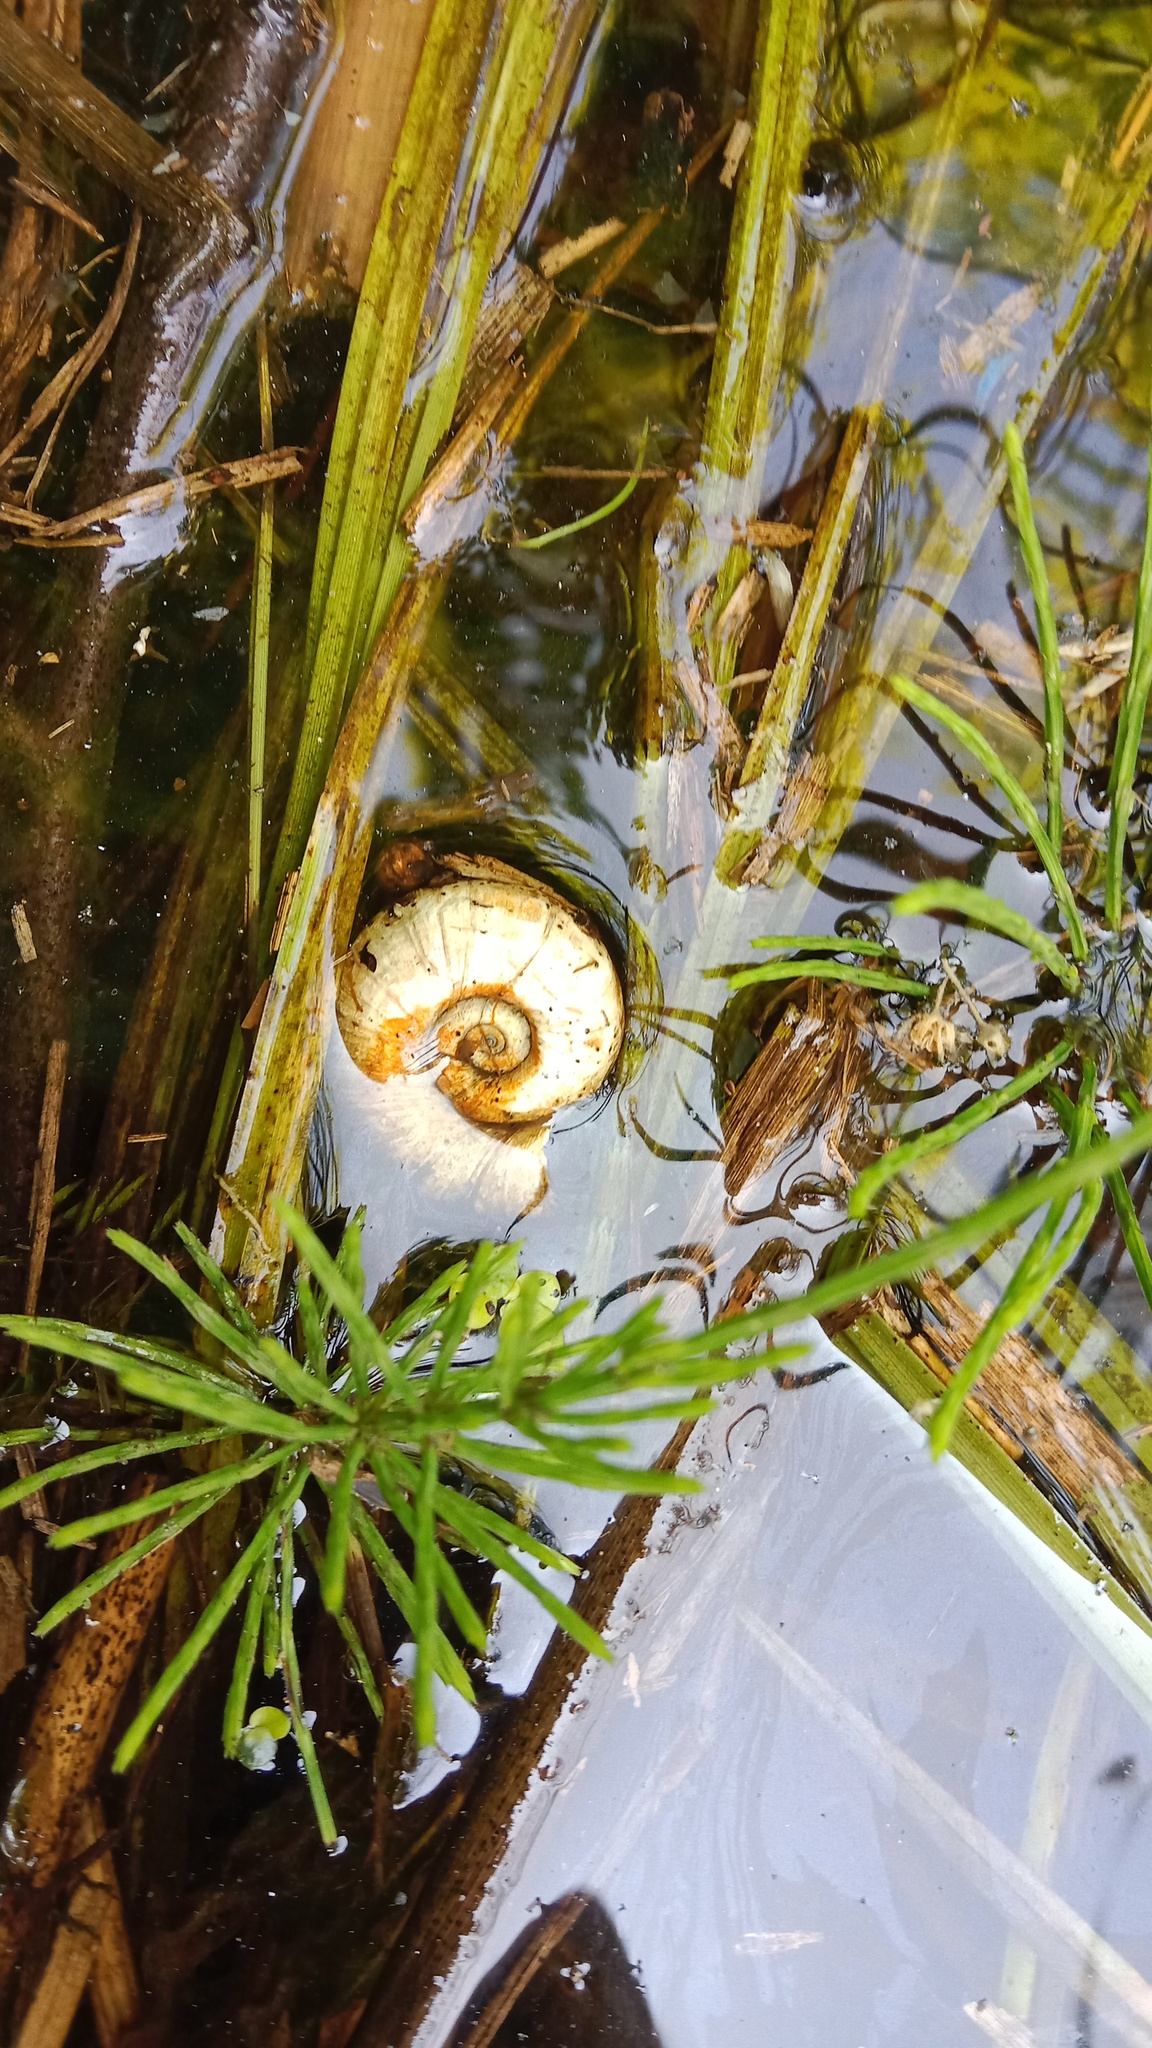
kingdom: Animalia
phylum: Mollusca
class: Gastropoda
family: Planorbidae
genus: Planorbarius
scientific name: Planorbarius corneus
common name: Great ramshorn
